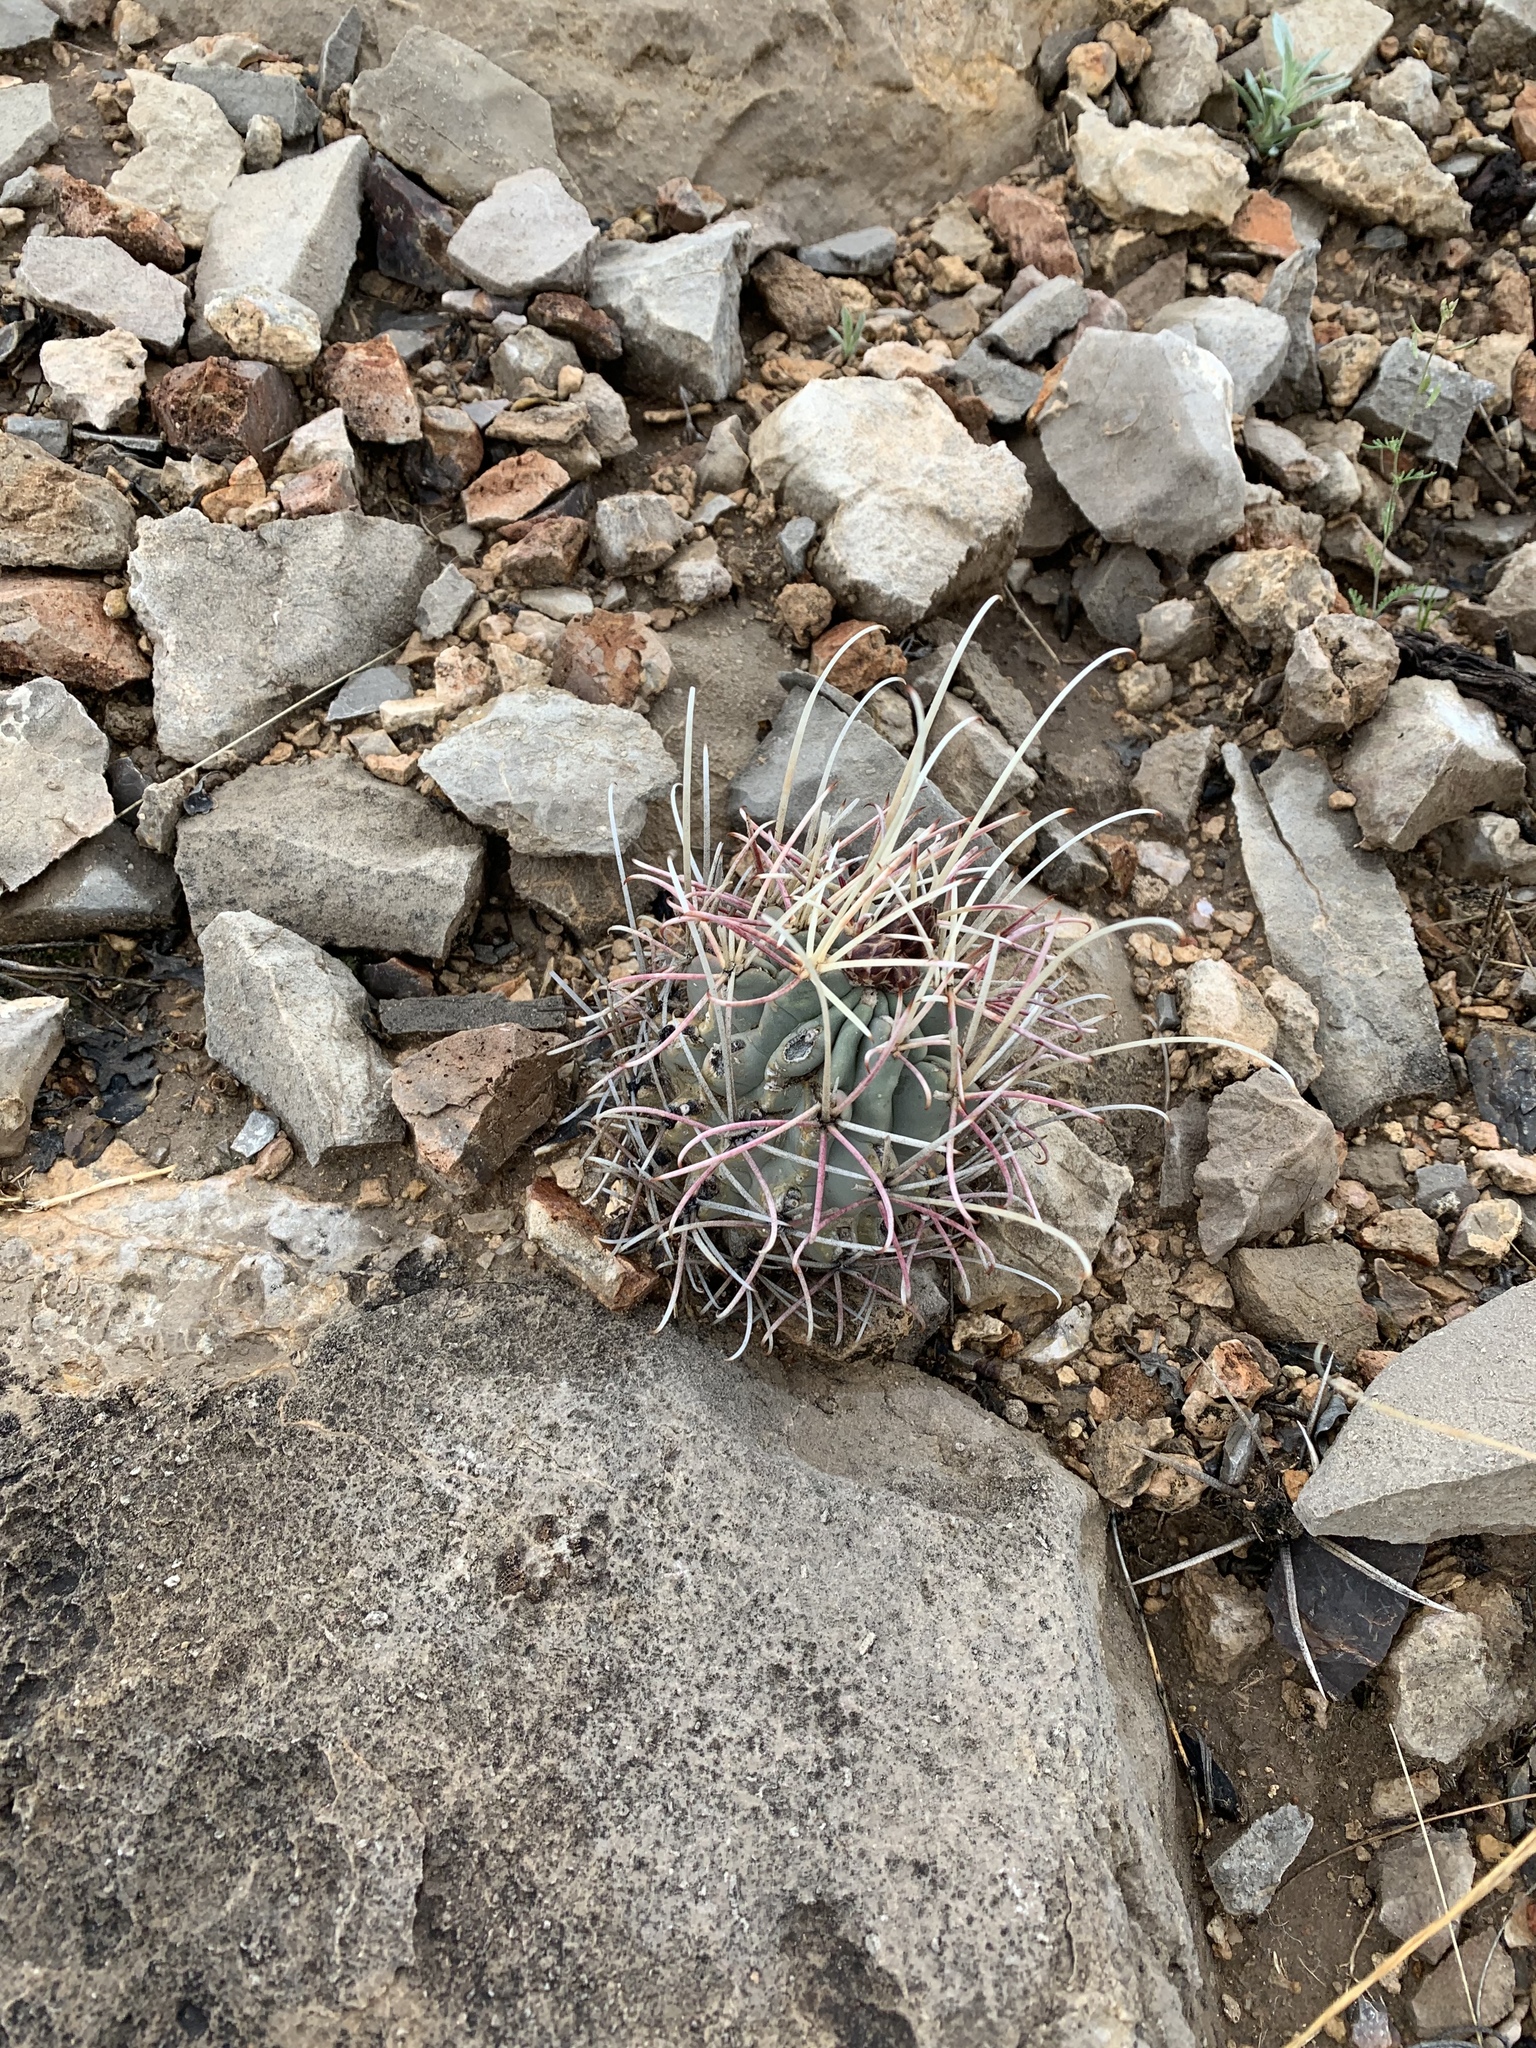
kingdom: Plantae
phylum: Tracheophyta
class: Magnoliopsida
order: Caryophyllales
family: Cactaceae
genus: Ferocactus
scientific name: Ferocactus uncinatus
